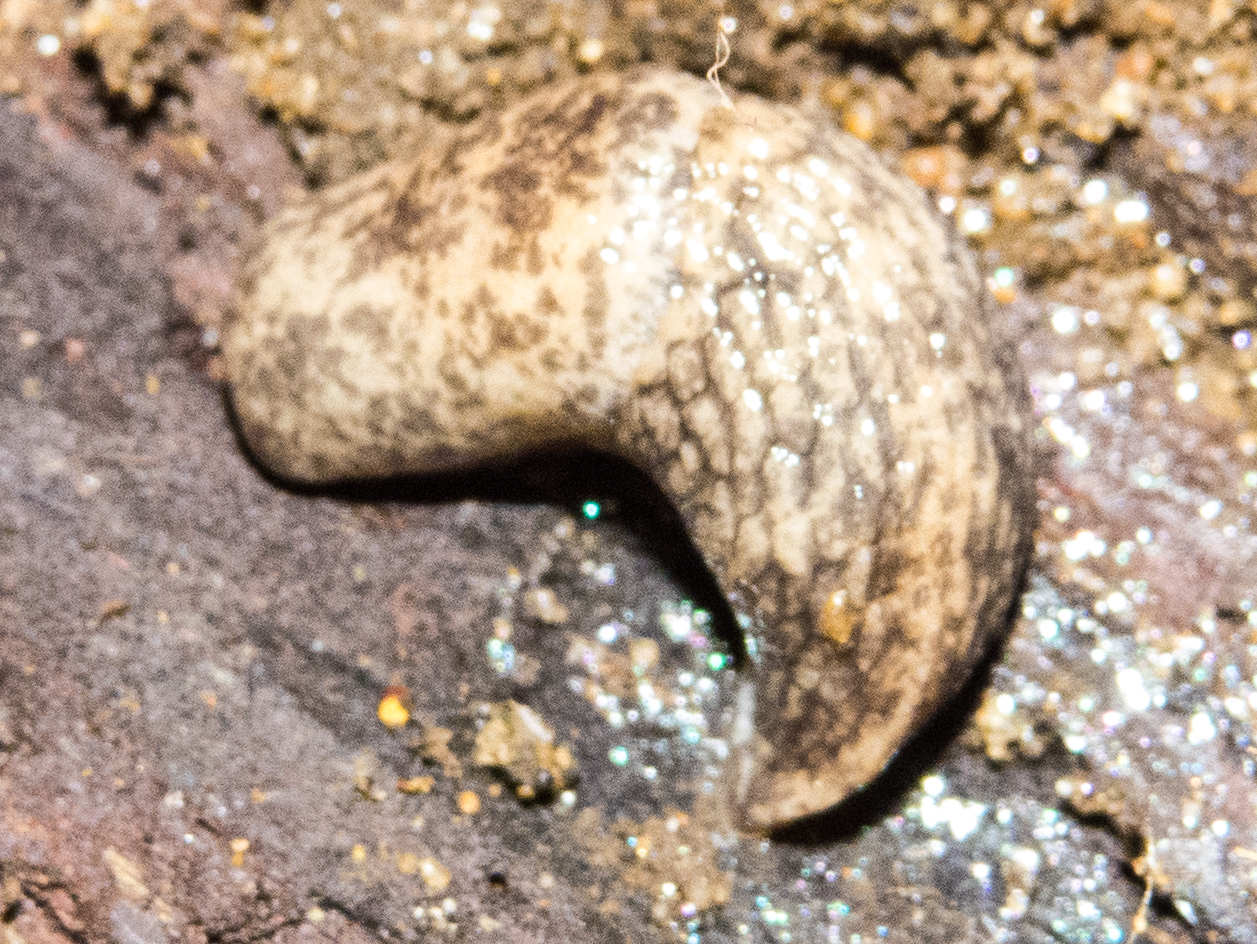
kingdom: Animalia
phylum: Mollusca
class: Gastropoda
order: Stylommatophora
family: Agriolimacidae
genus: Deroceras
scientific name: Deroceras reticulatum
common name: Gray field slug
